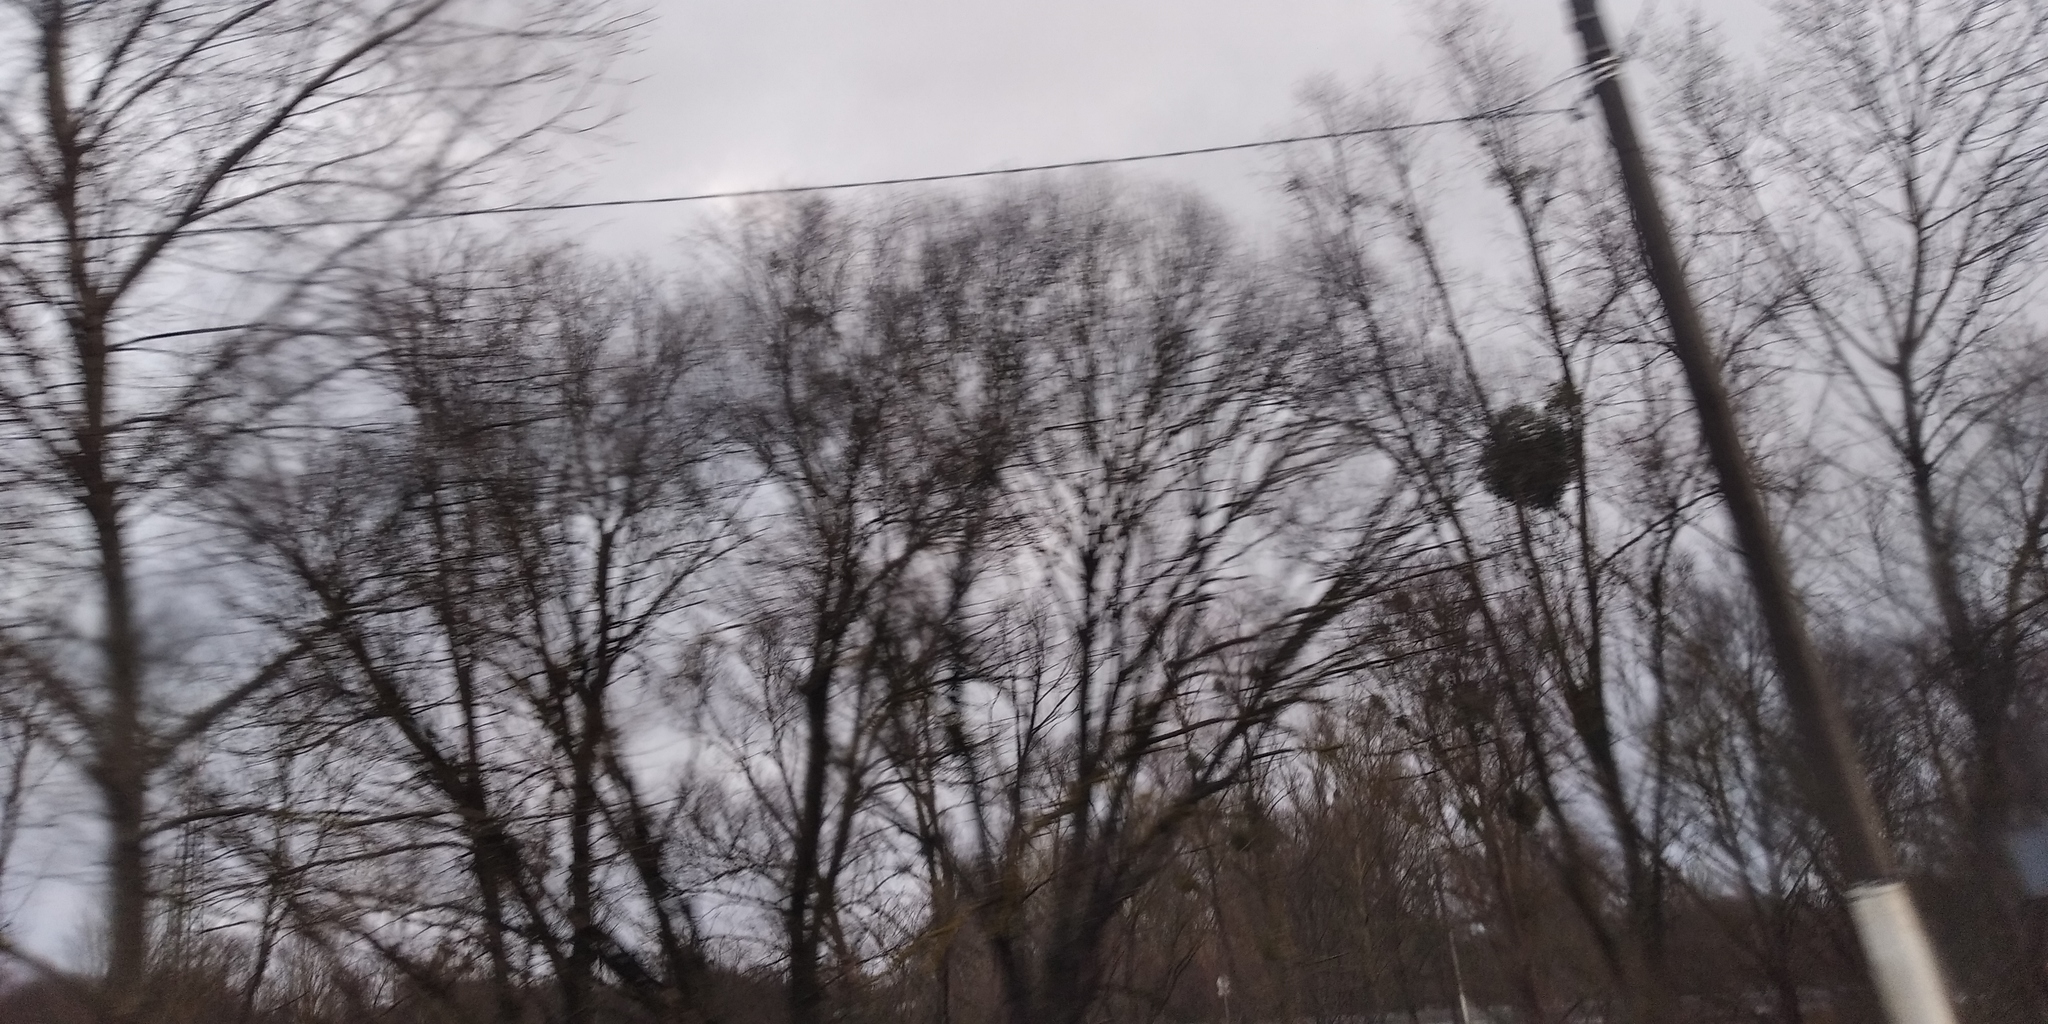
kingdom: Plantae
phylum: Tracheophyta
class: Magnoliopsida
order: Santalales
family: Viscaceae
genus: Viscum
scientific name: Viscum album
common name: Mistletoe
